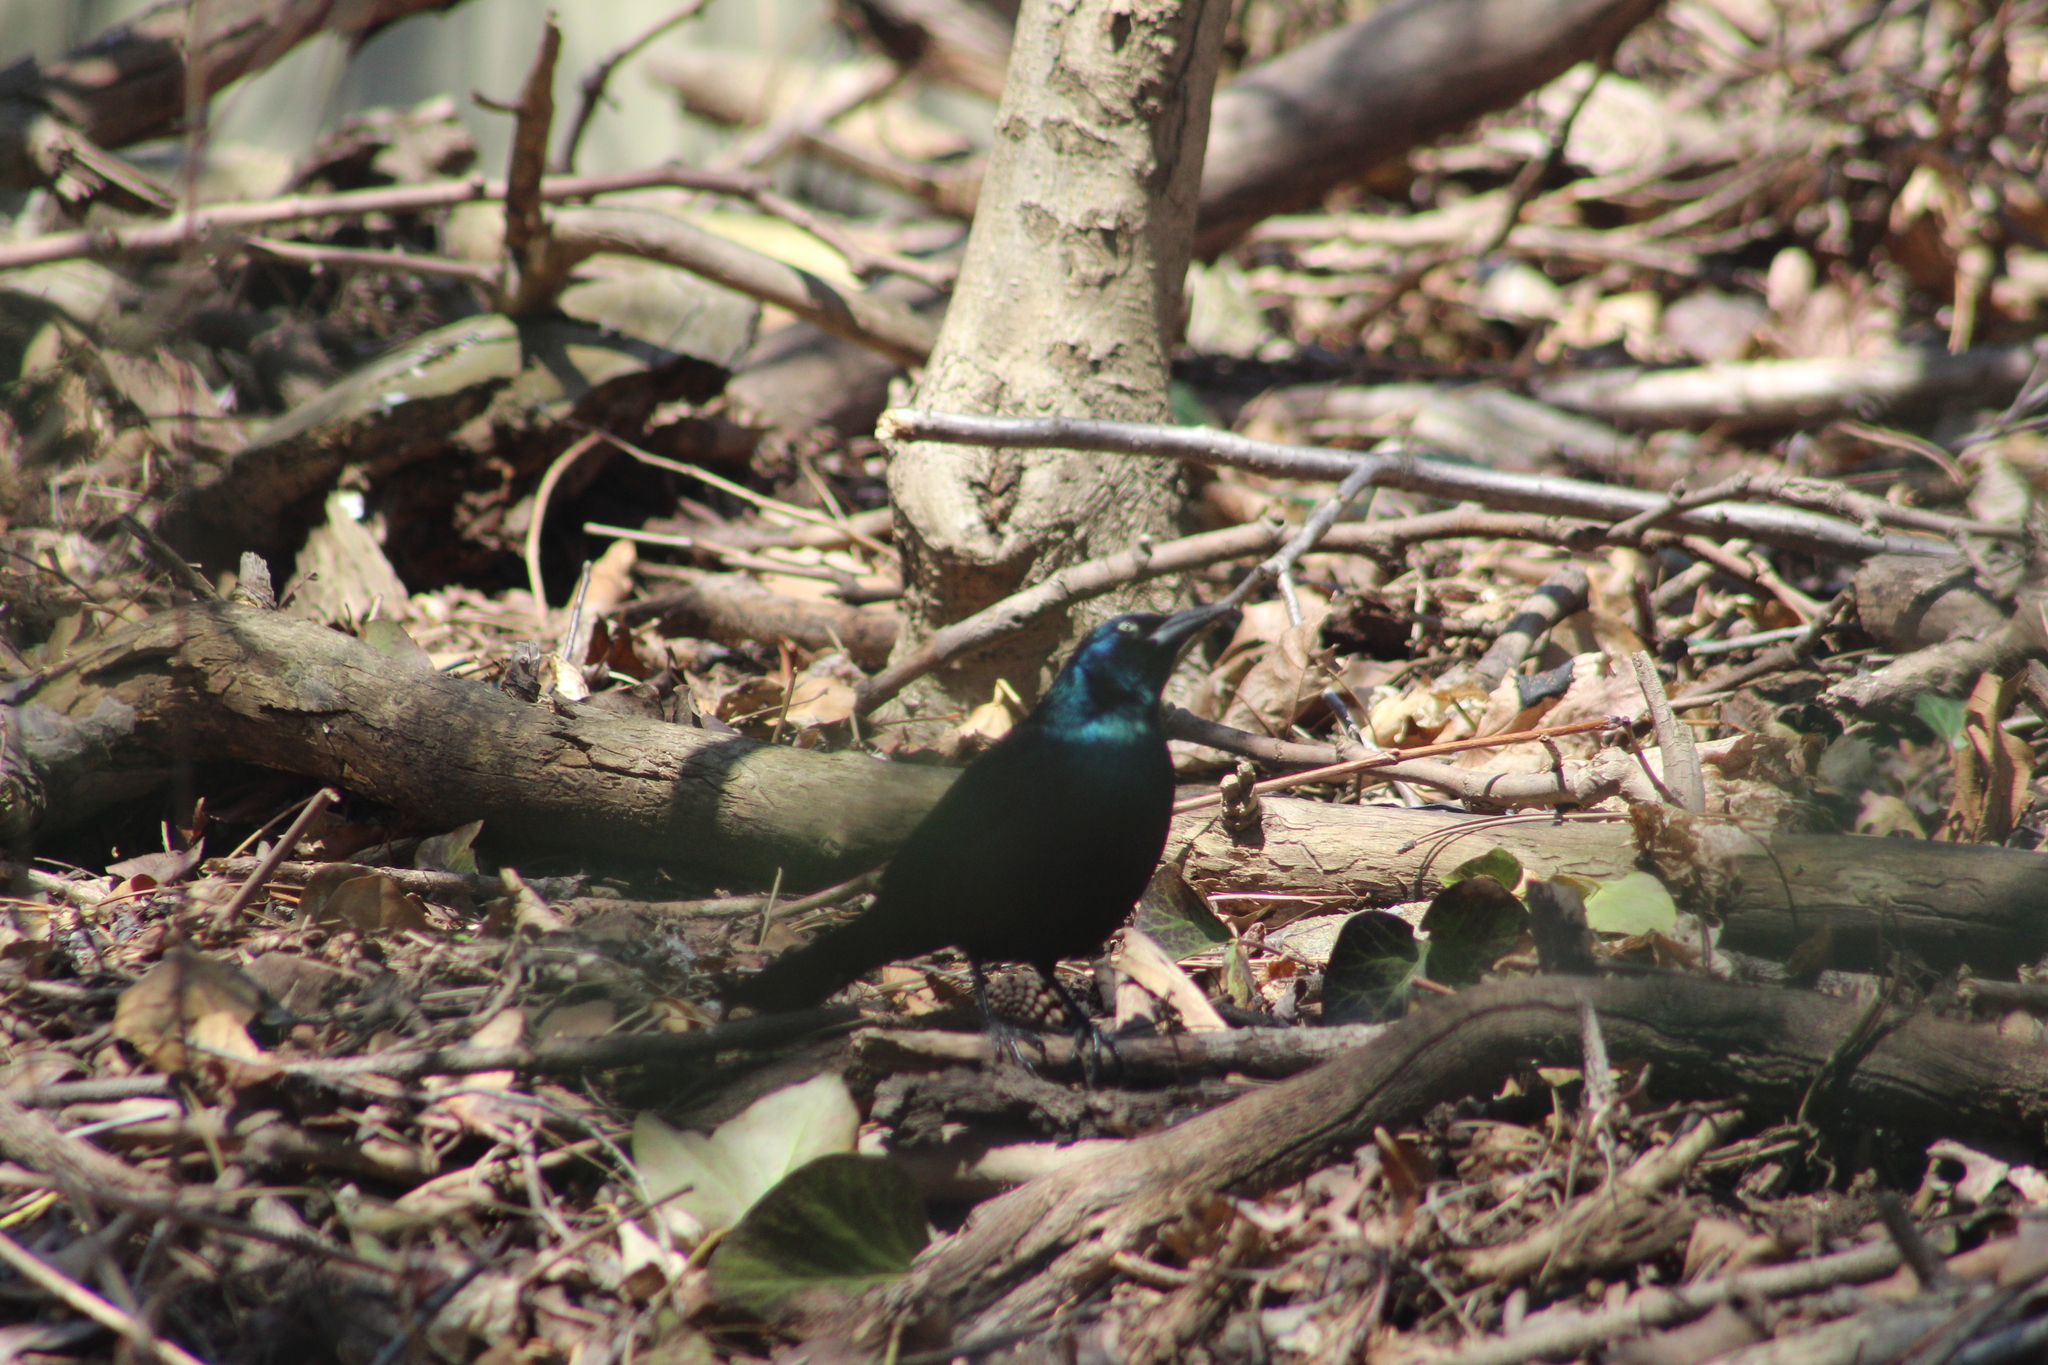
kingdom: Animalia
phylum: Chordata
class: Aves
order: Passeriformes
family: Icteridae
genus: Quiscalus
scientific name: Quiscalus quiscula
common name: Common grackle
